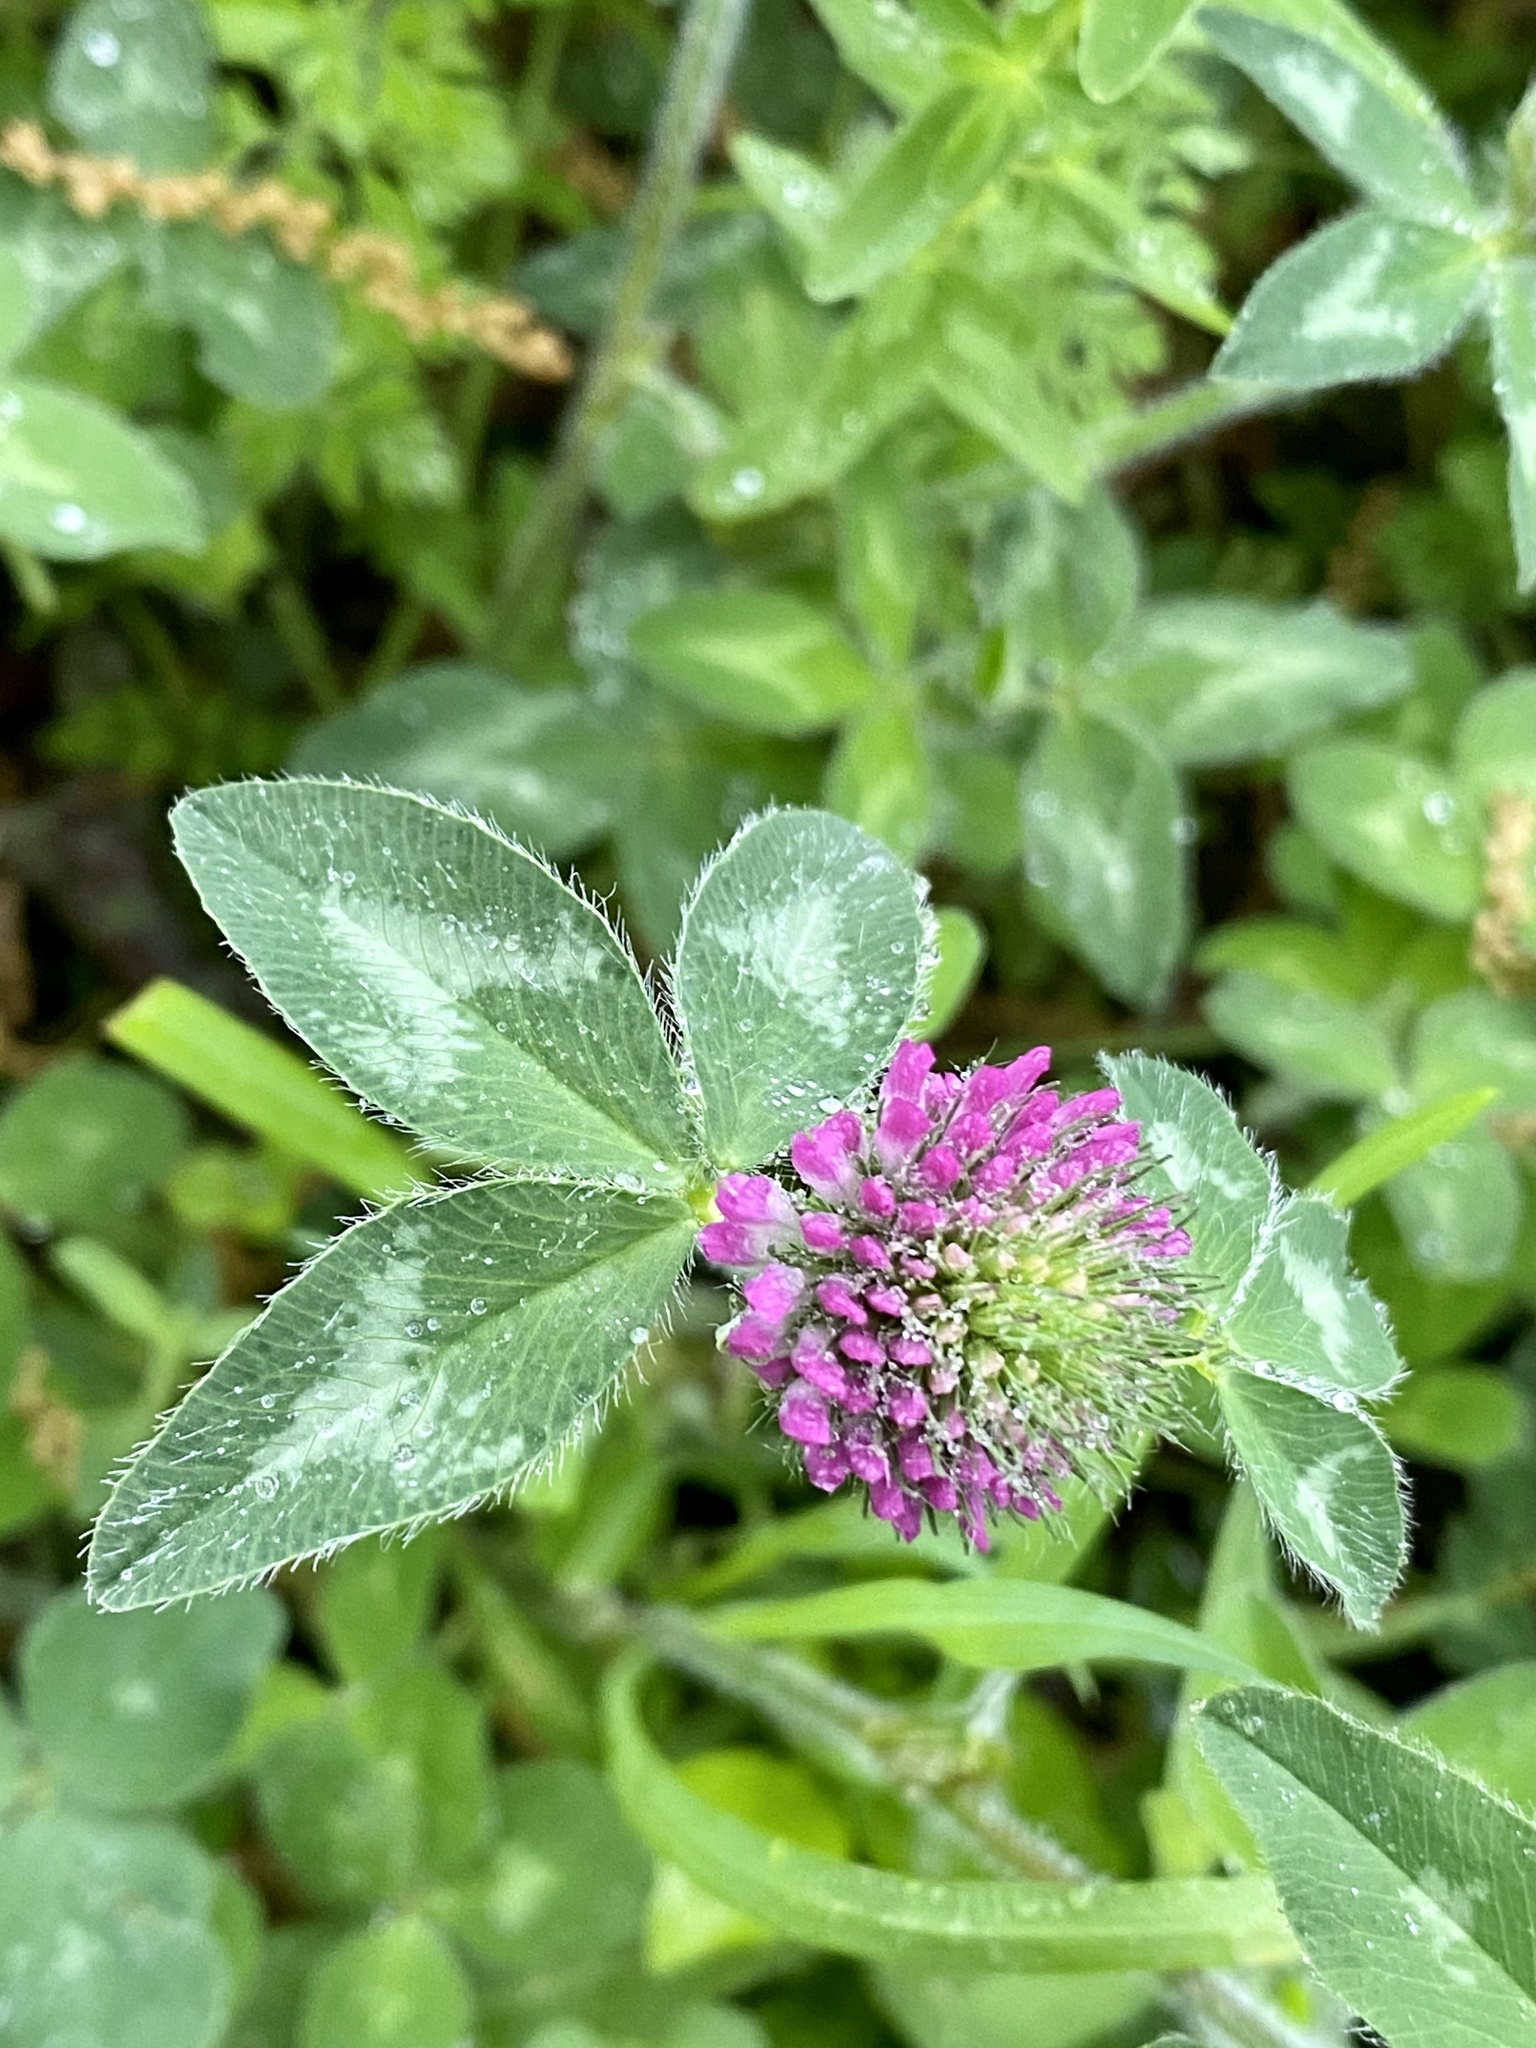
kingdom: Plantae
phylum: Tracheophyta
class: Magnoliopsida
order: Fabales
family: Fabaceae
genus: Trifolium
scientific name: Trifolium pratense
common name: Red clover
